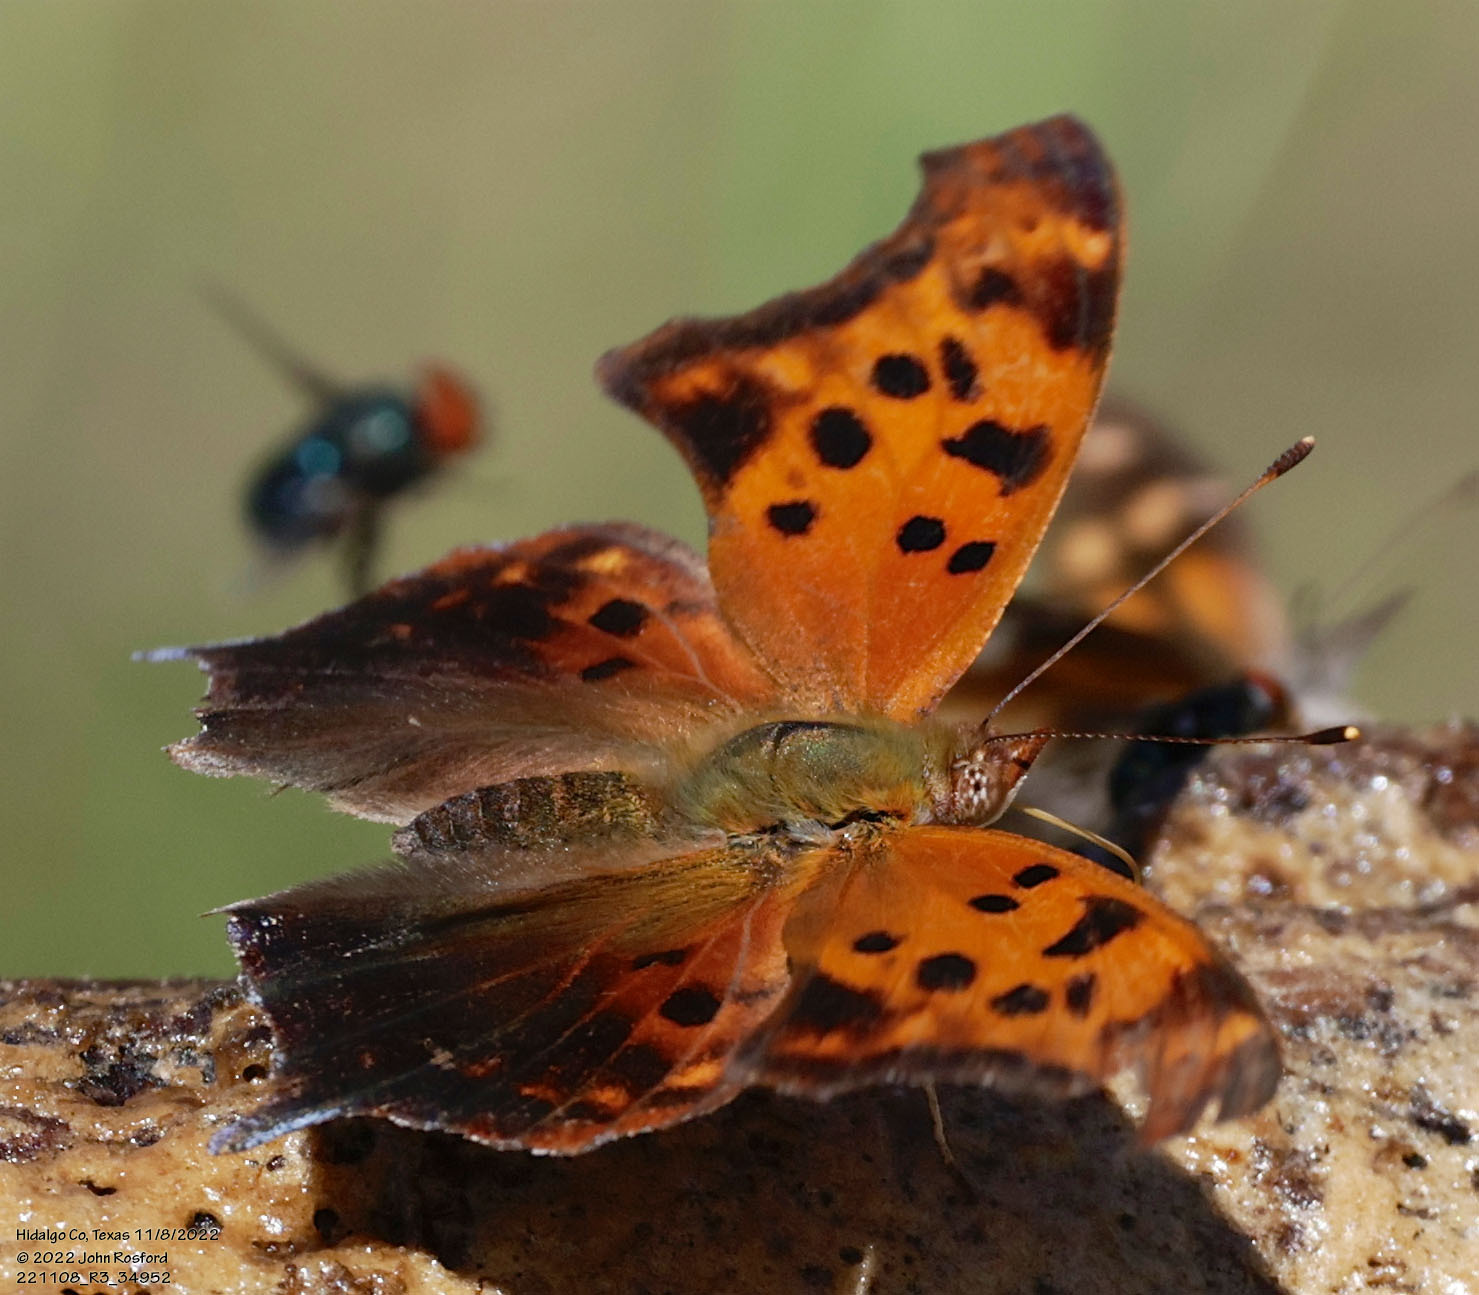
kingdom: Animalia
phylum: Arthropoda
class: Insecta
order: Lepidoptera
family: Nymphalidae
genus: Polygonia
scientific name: Polygonia interrogationis
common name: Question mark
